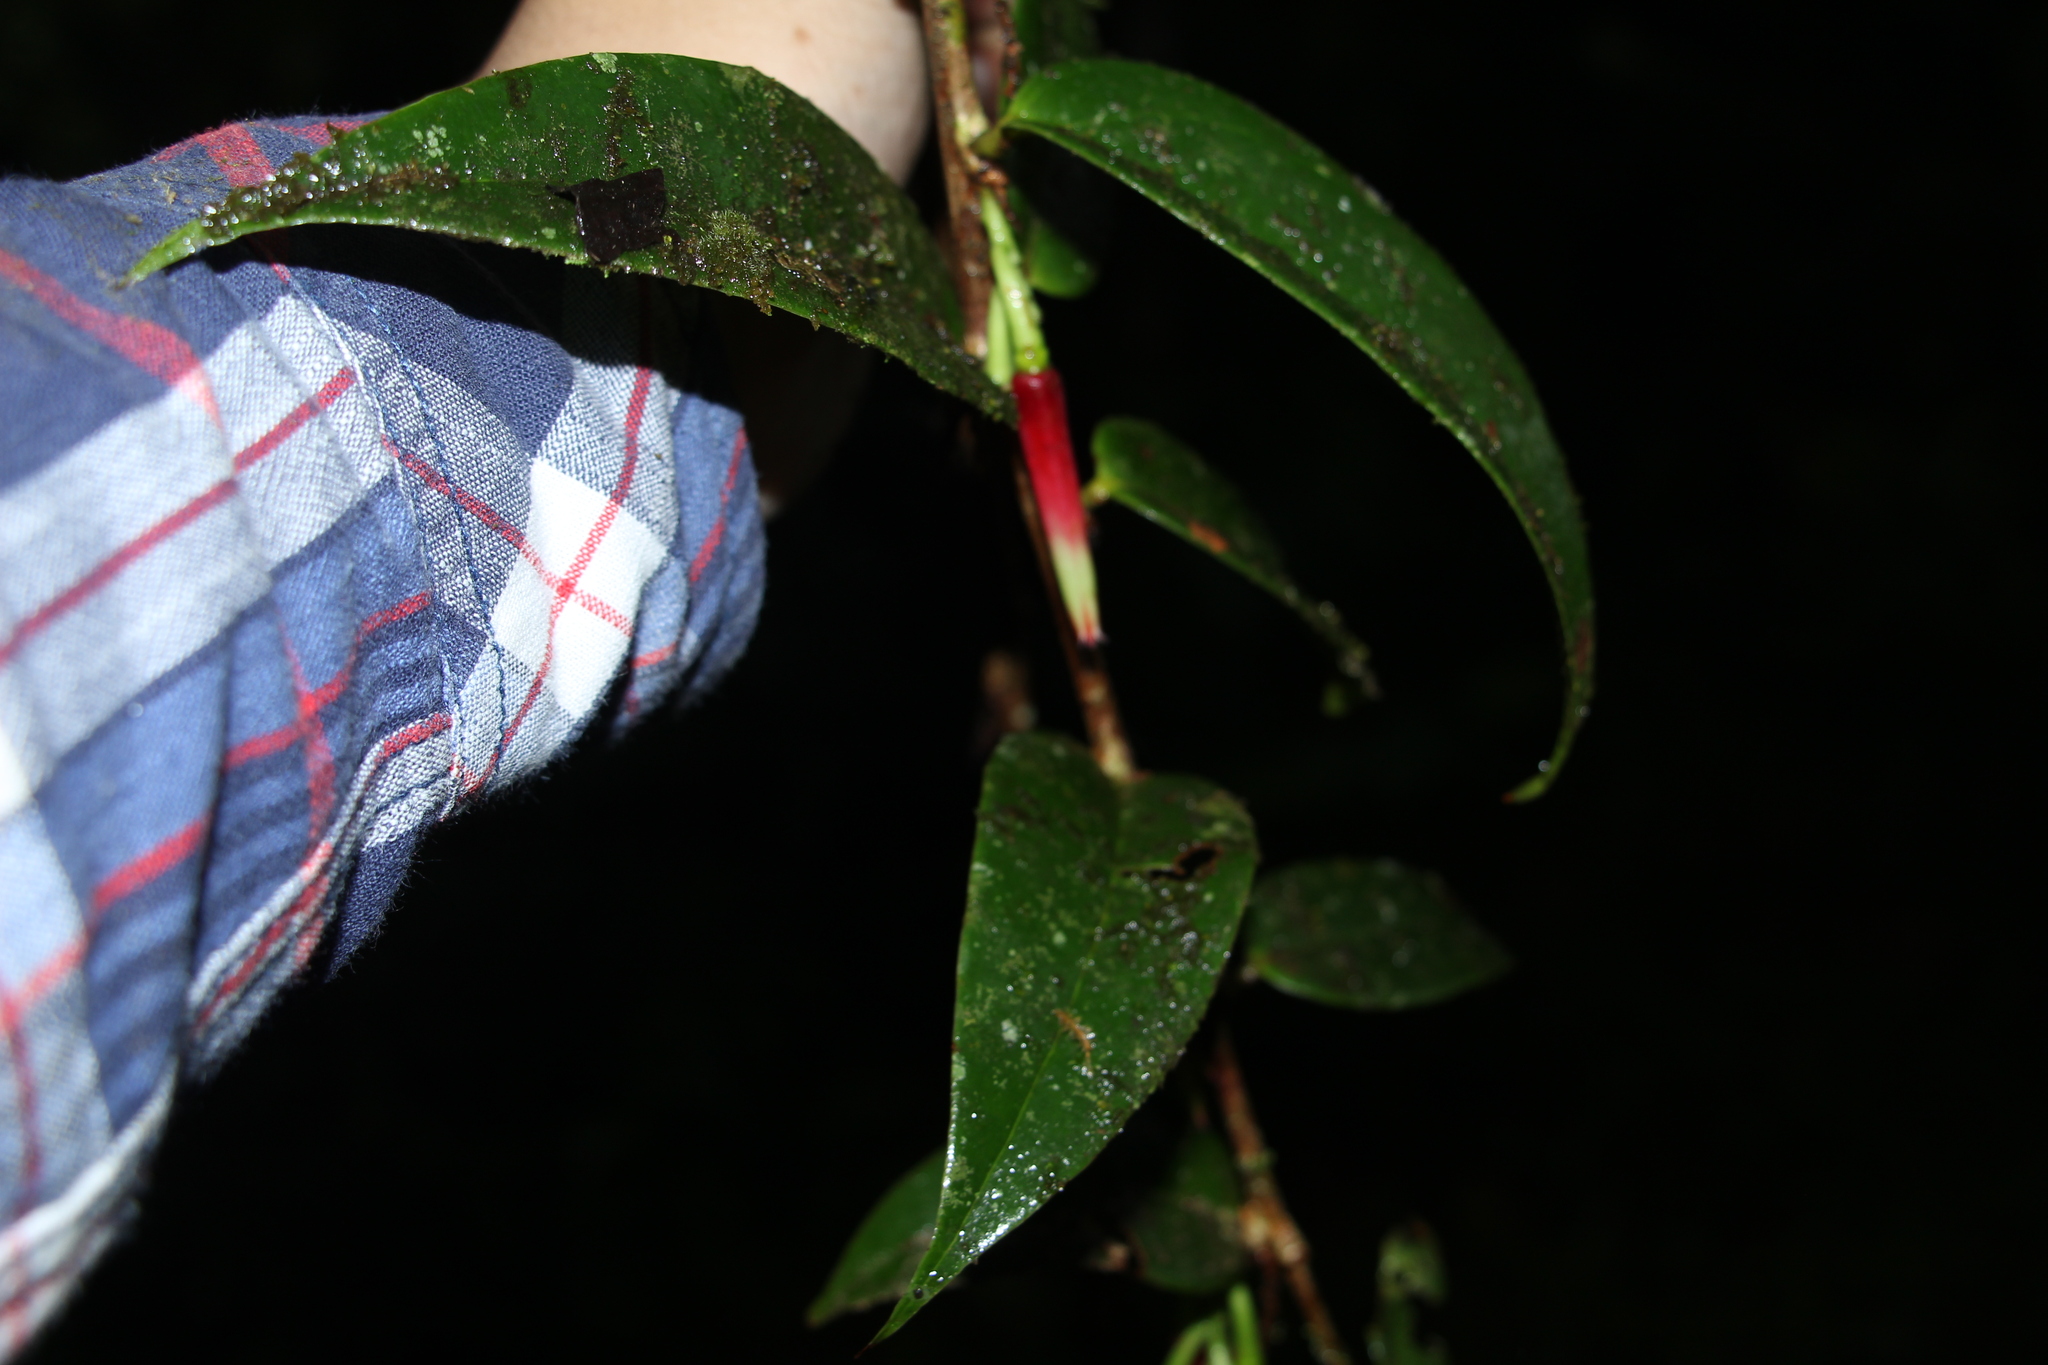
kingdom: Plantae
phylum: Tracheophyta
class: Magnoliopsida
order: Ericales
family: Ericaceae
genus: Satyria
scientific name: Satyria panurensis
